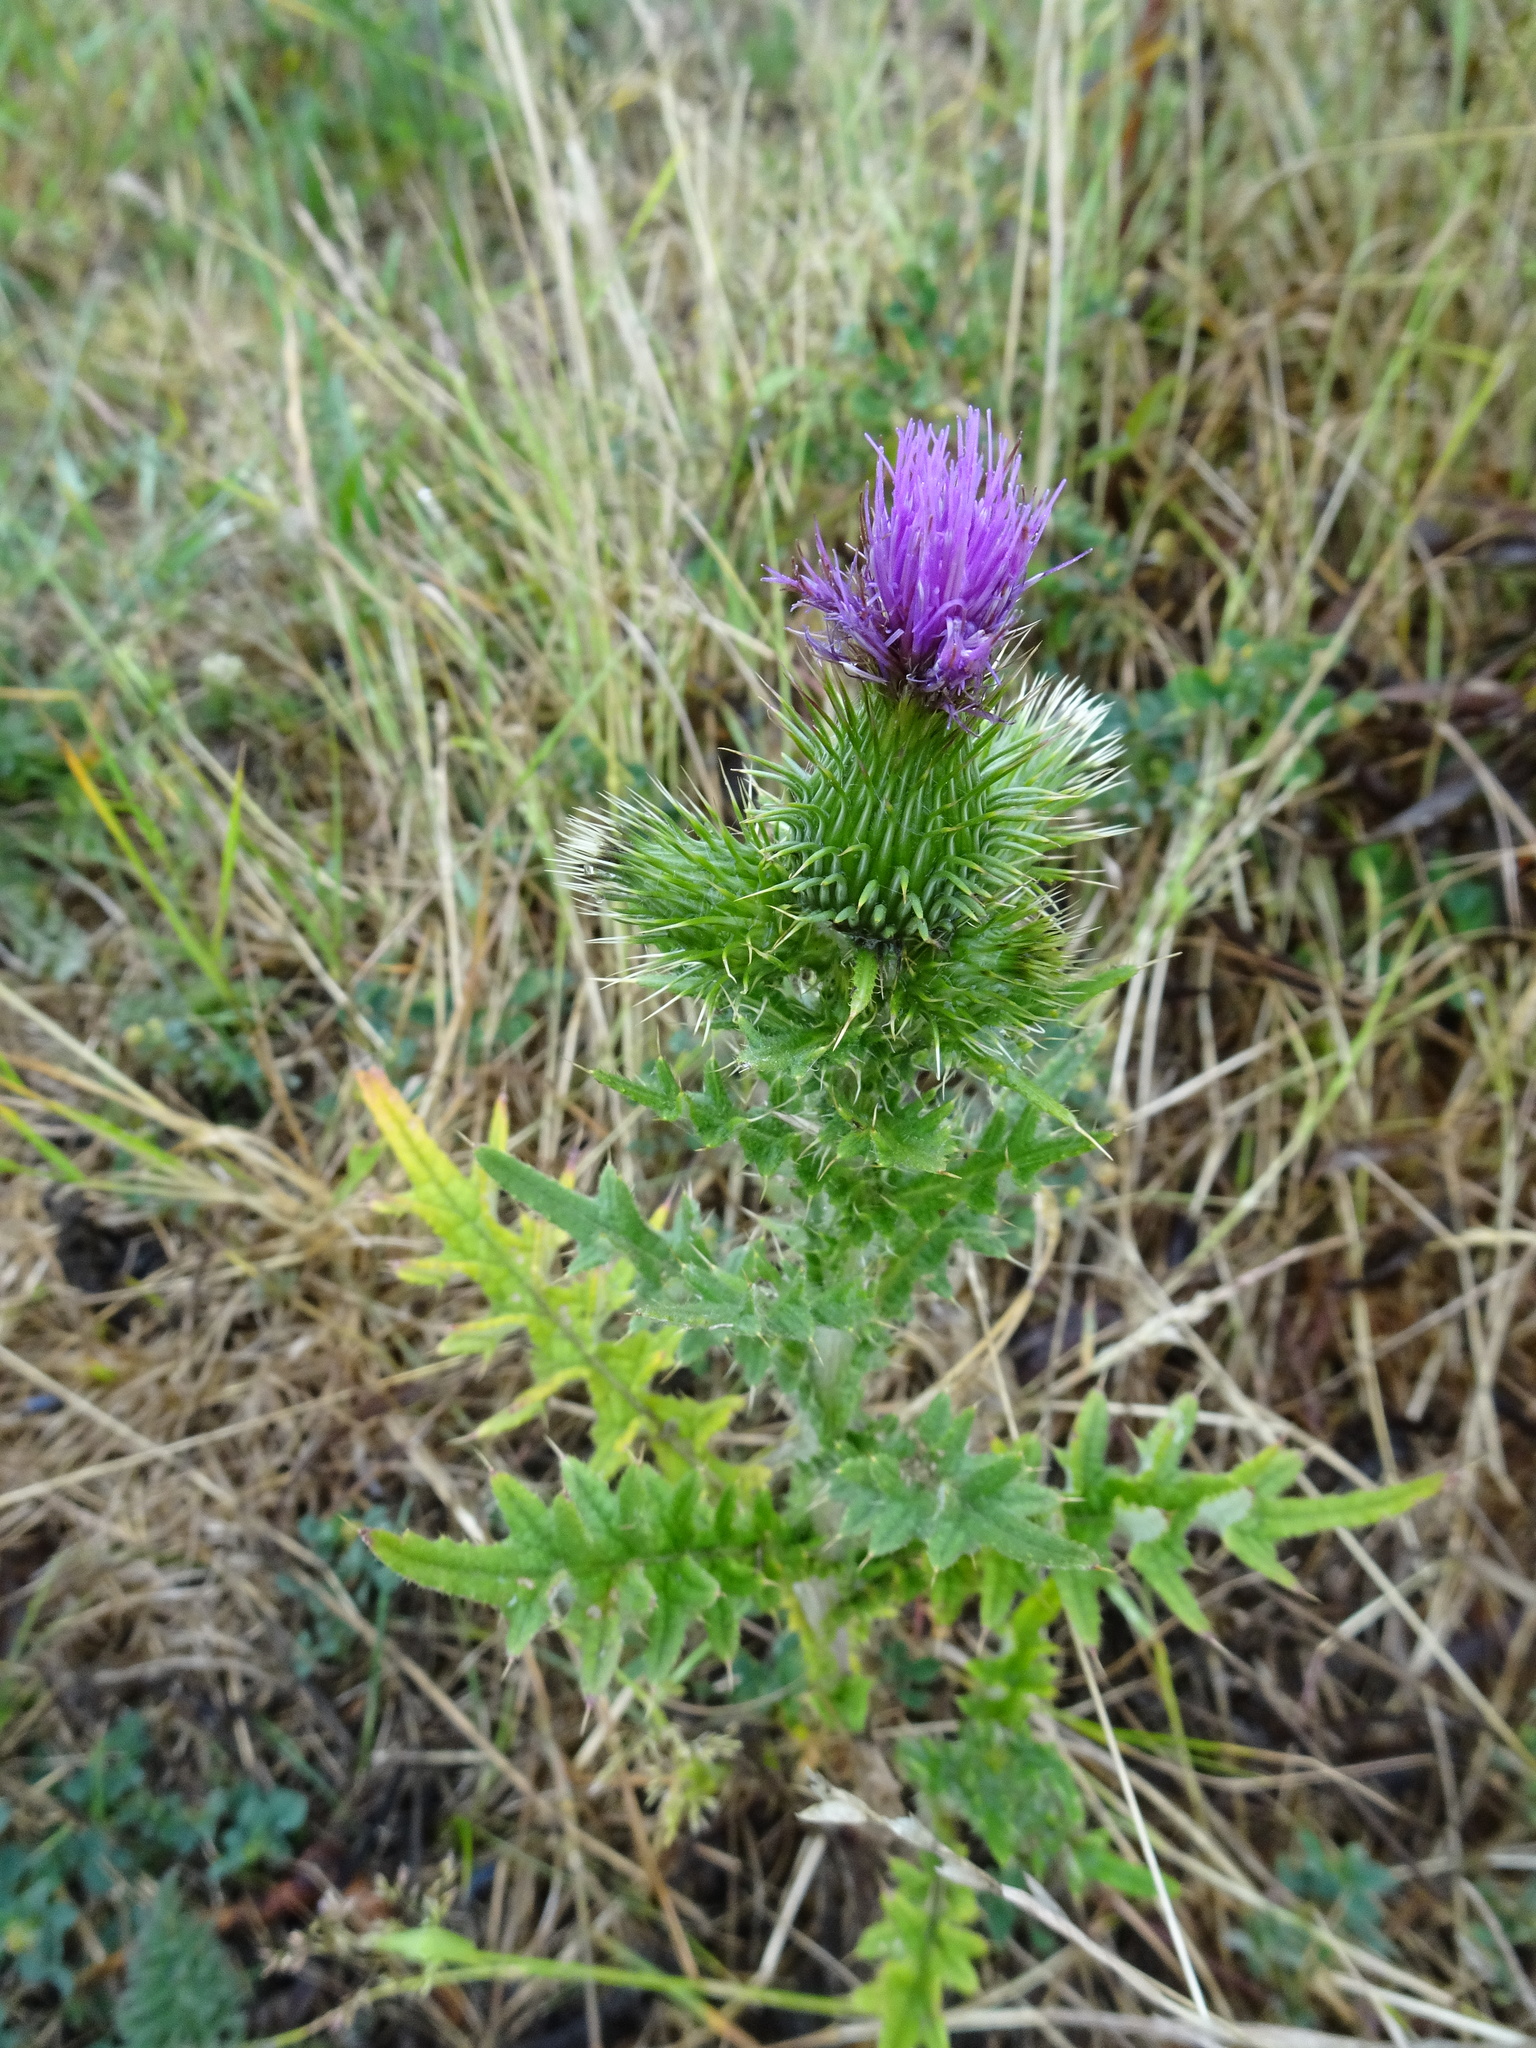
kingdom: Plantae
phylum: Tracheophyta
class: Magnoliopsida
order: Asterales
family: Asteraceae
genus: Cirsium
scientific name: Cirsium vulgare
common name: Bull thistle
